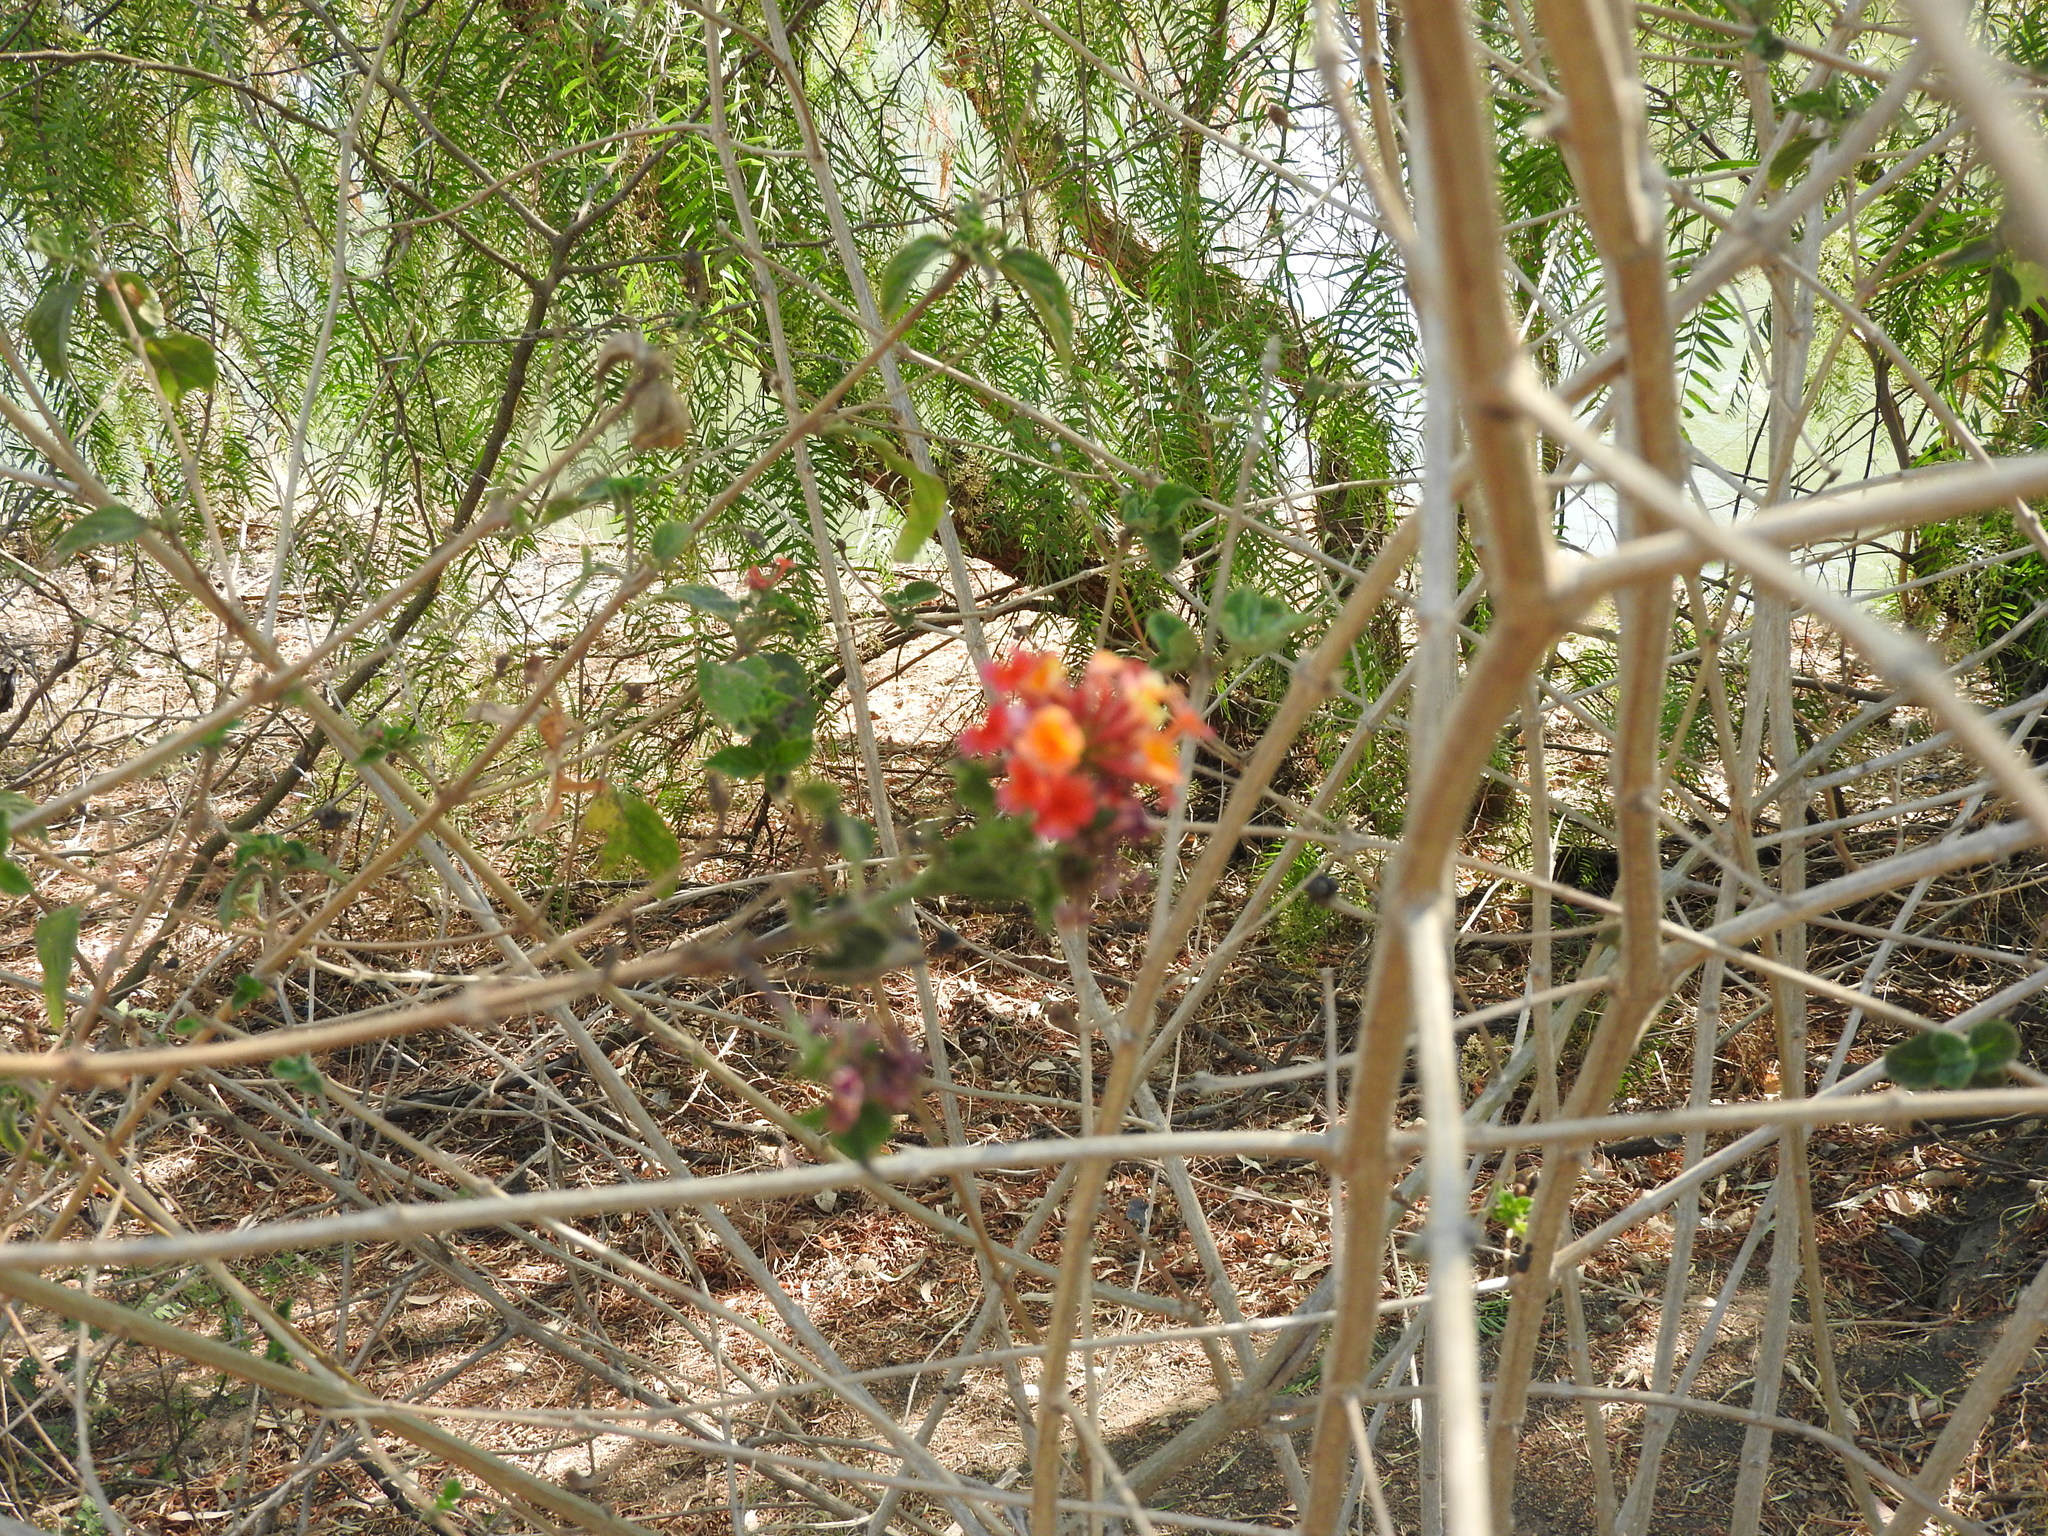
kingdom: Plantae
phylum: Tracheophyta
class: Magnoliopsida
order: Lamiales
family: Verbenaceae
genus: Lantana
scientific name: Lantana camara
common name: Lantana
